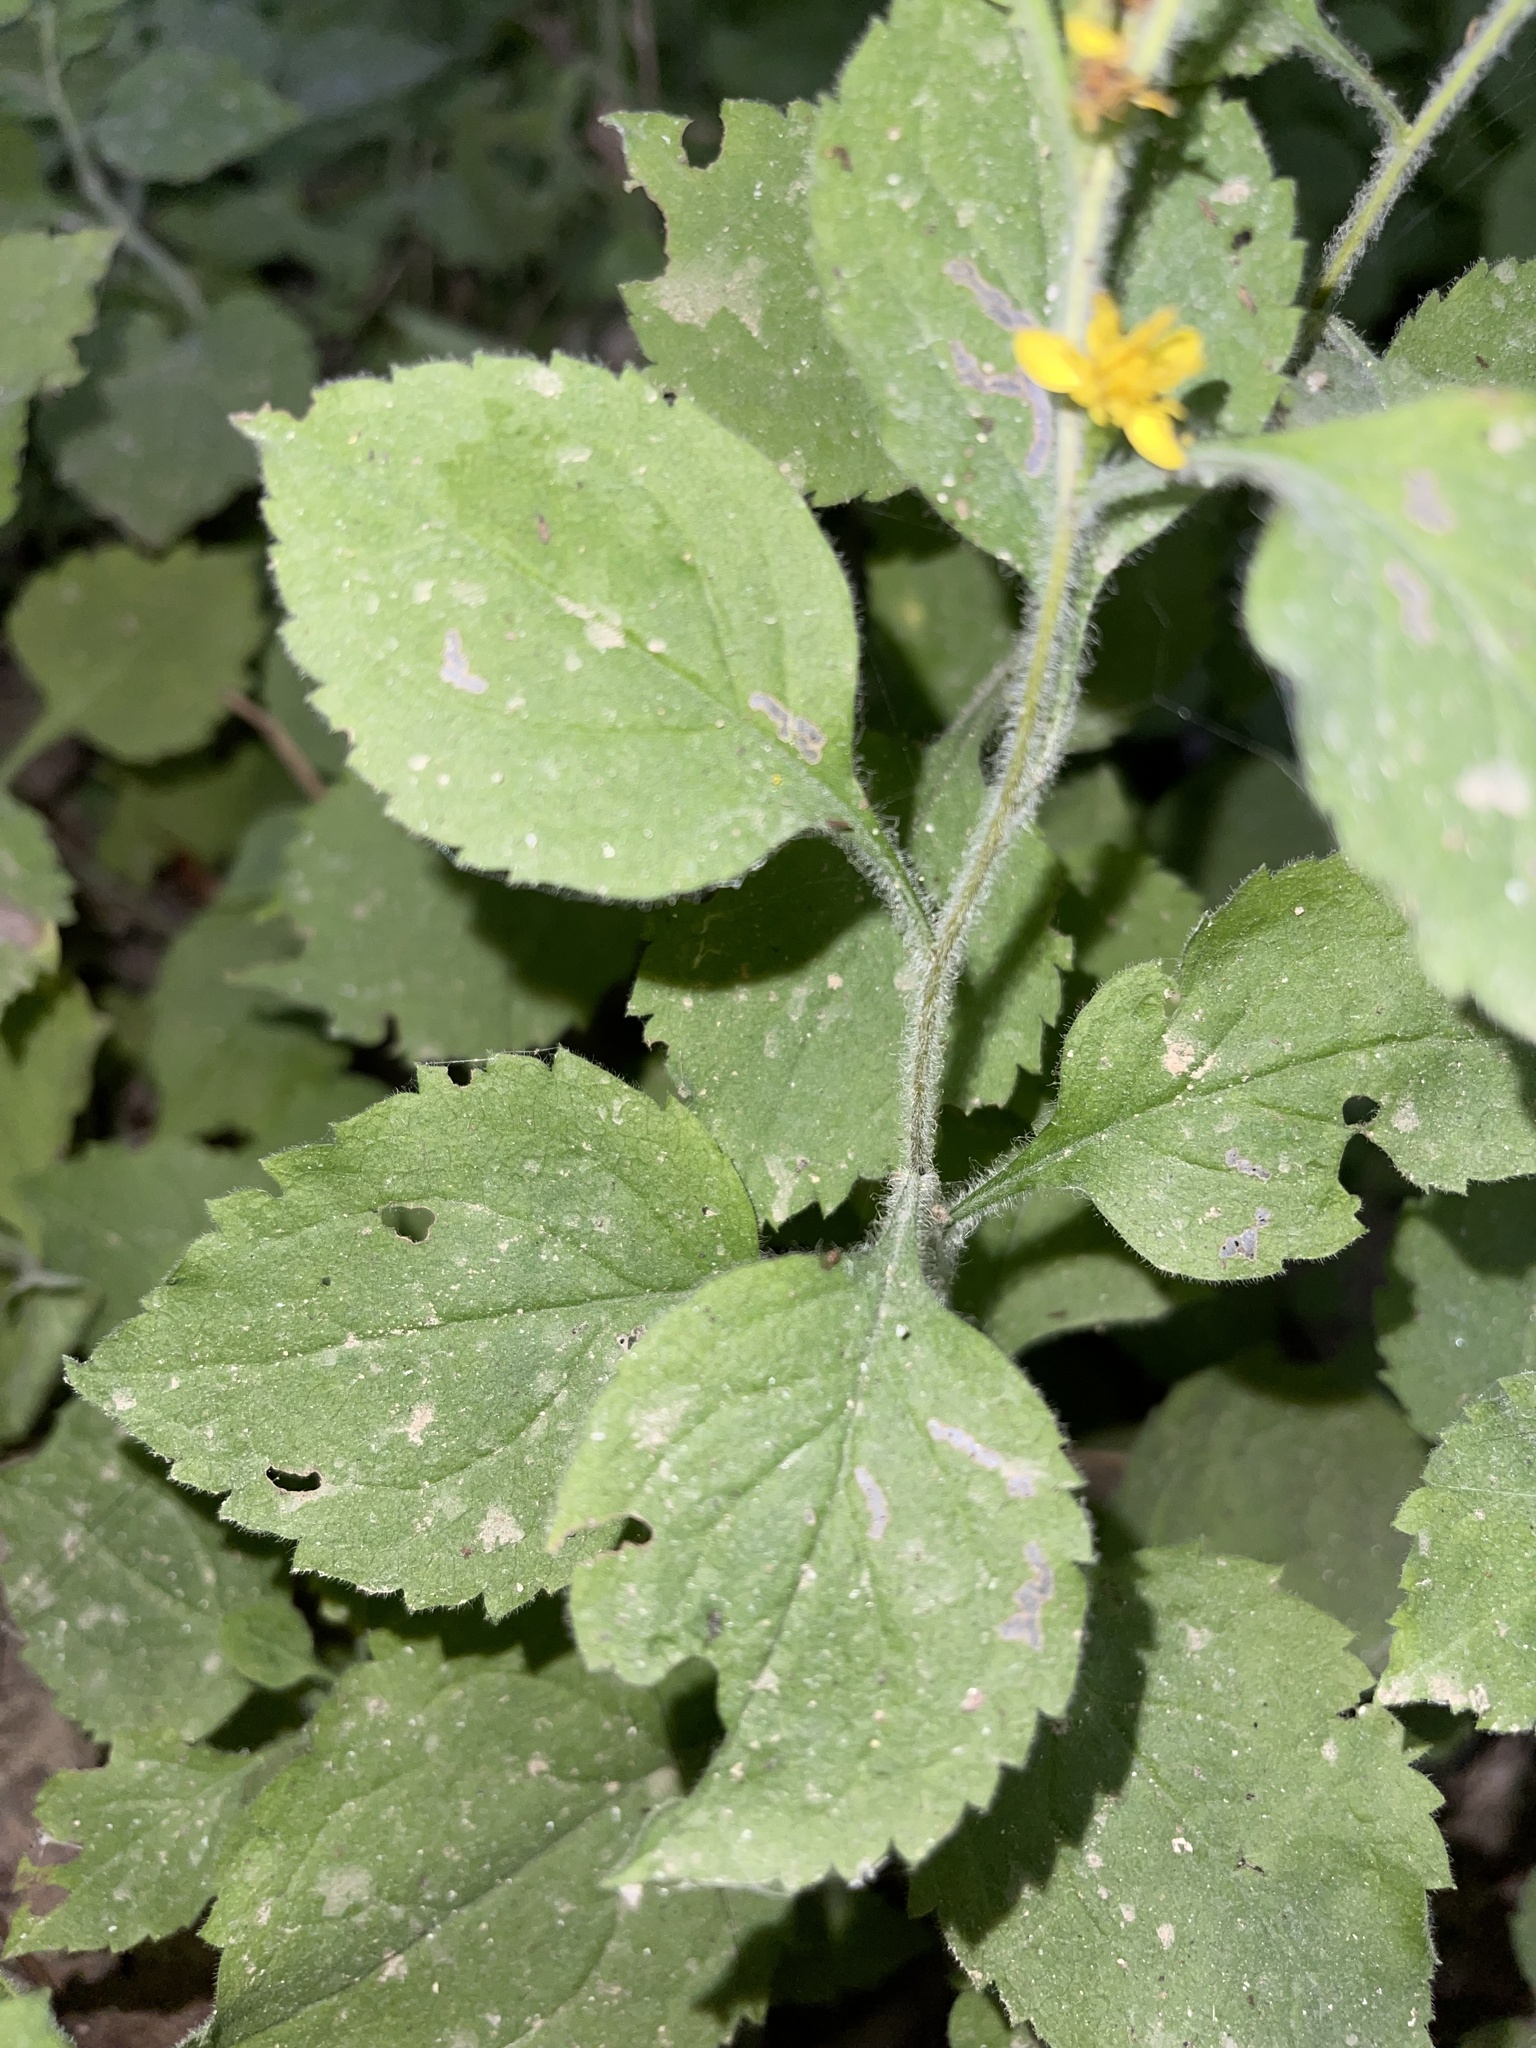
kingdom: Plantae
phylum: Tracheophyta
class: Magnoliopsida
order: Asterales
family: Asteraceae
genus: Solidago
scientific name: Solidago albopilosa
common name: White-hair goldenrod
